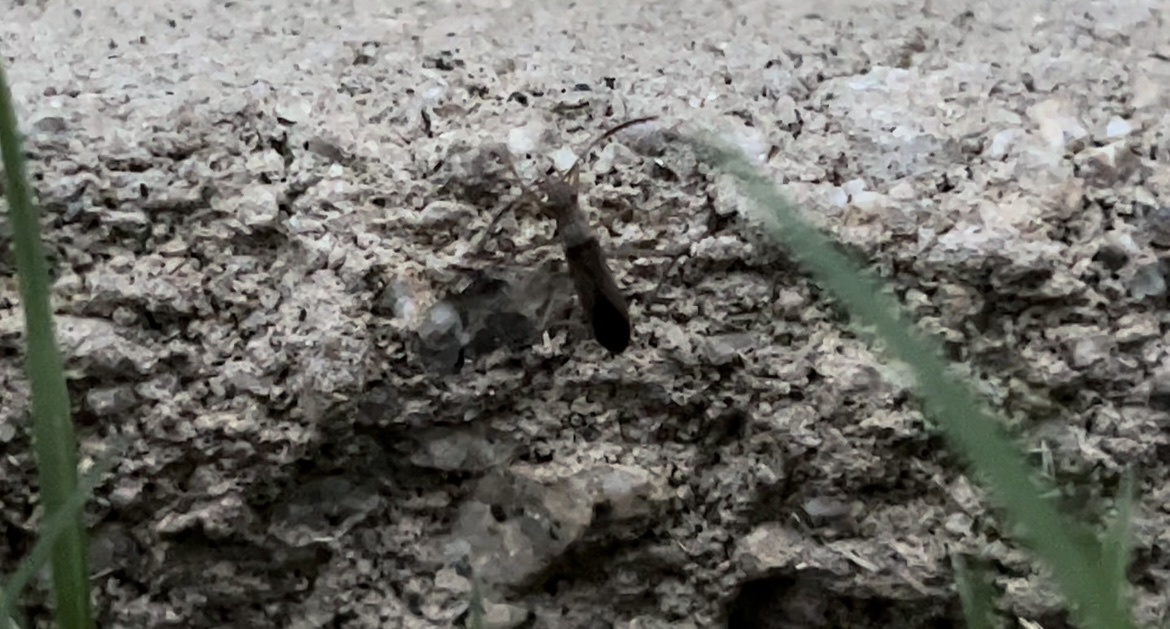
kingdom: Animalia
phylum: Arthropoda
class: Insecta
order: Hemiptera
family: Alydidae
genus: Esperanza
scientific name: Esperanza texana
